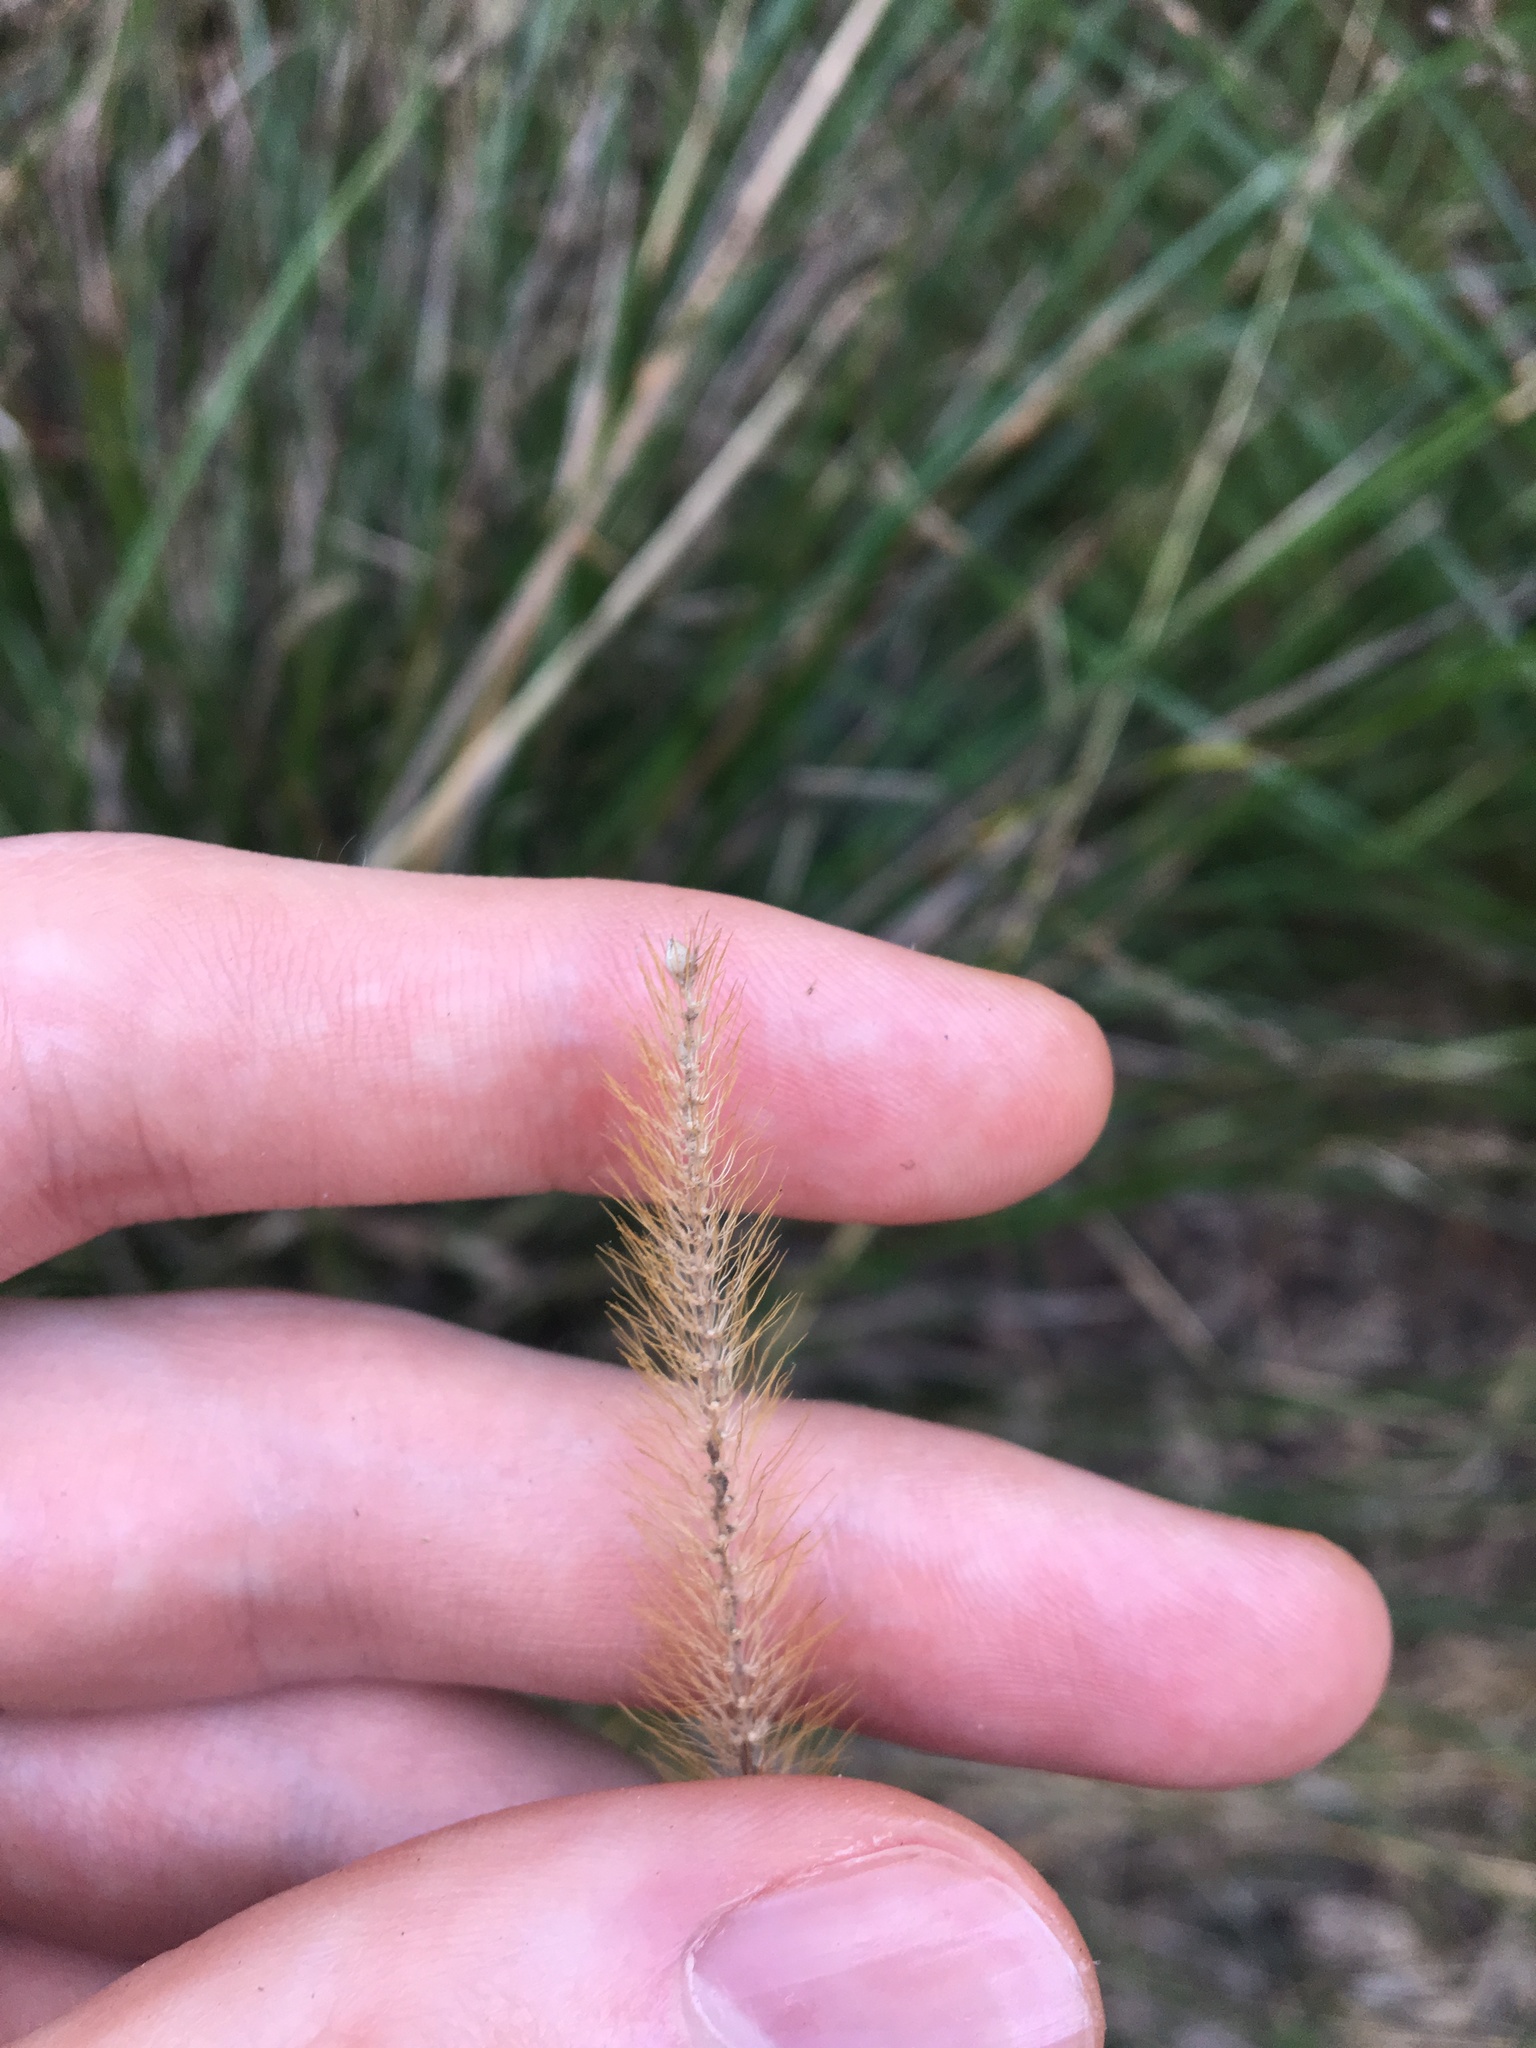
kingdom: Plantae
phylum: Tracheophyta
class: Liliopsida
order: Poales
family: Poaceae
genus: Setaria
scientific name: Setaria pumila
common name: Yellow bristle-grass
